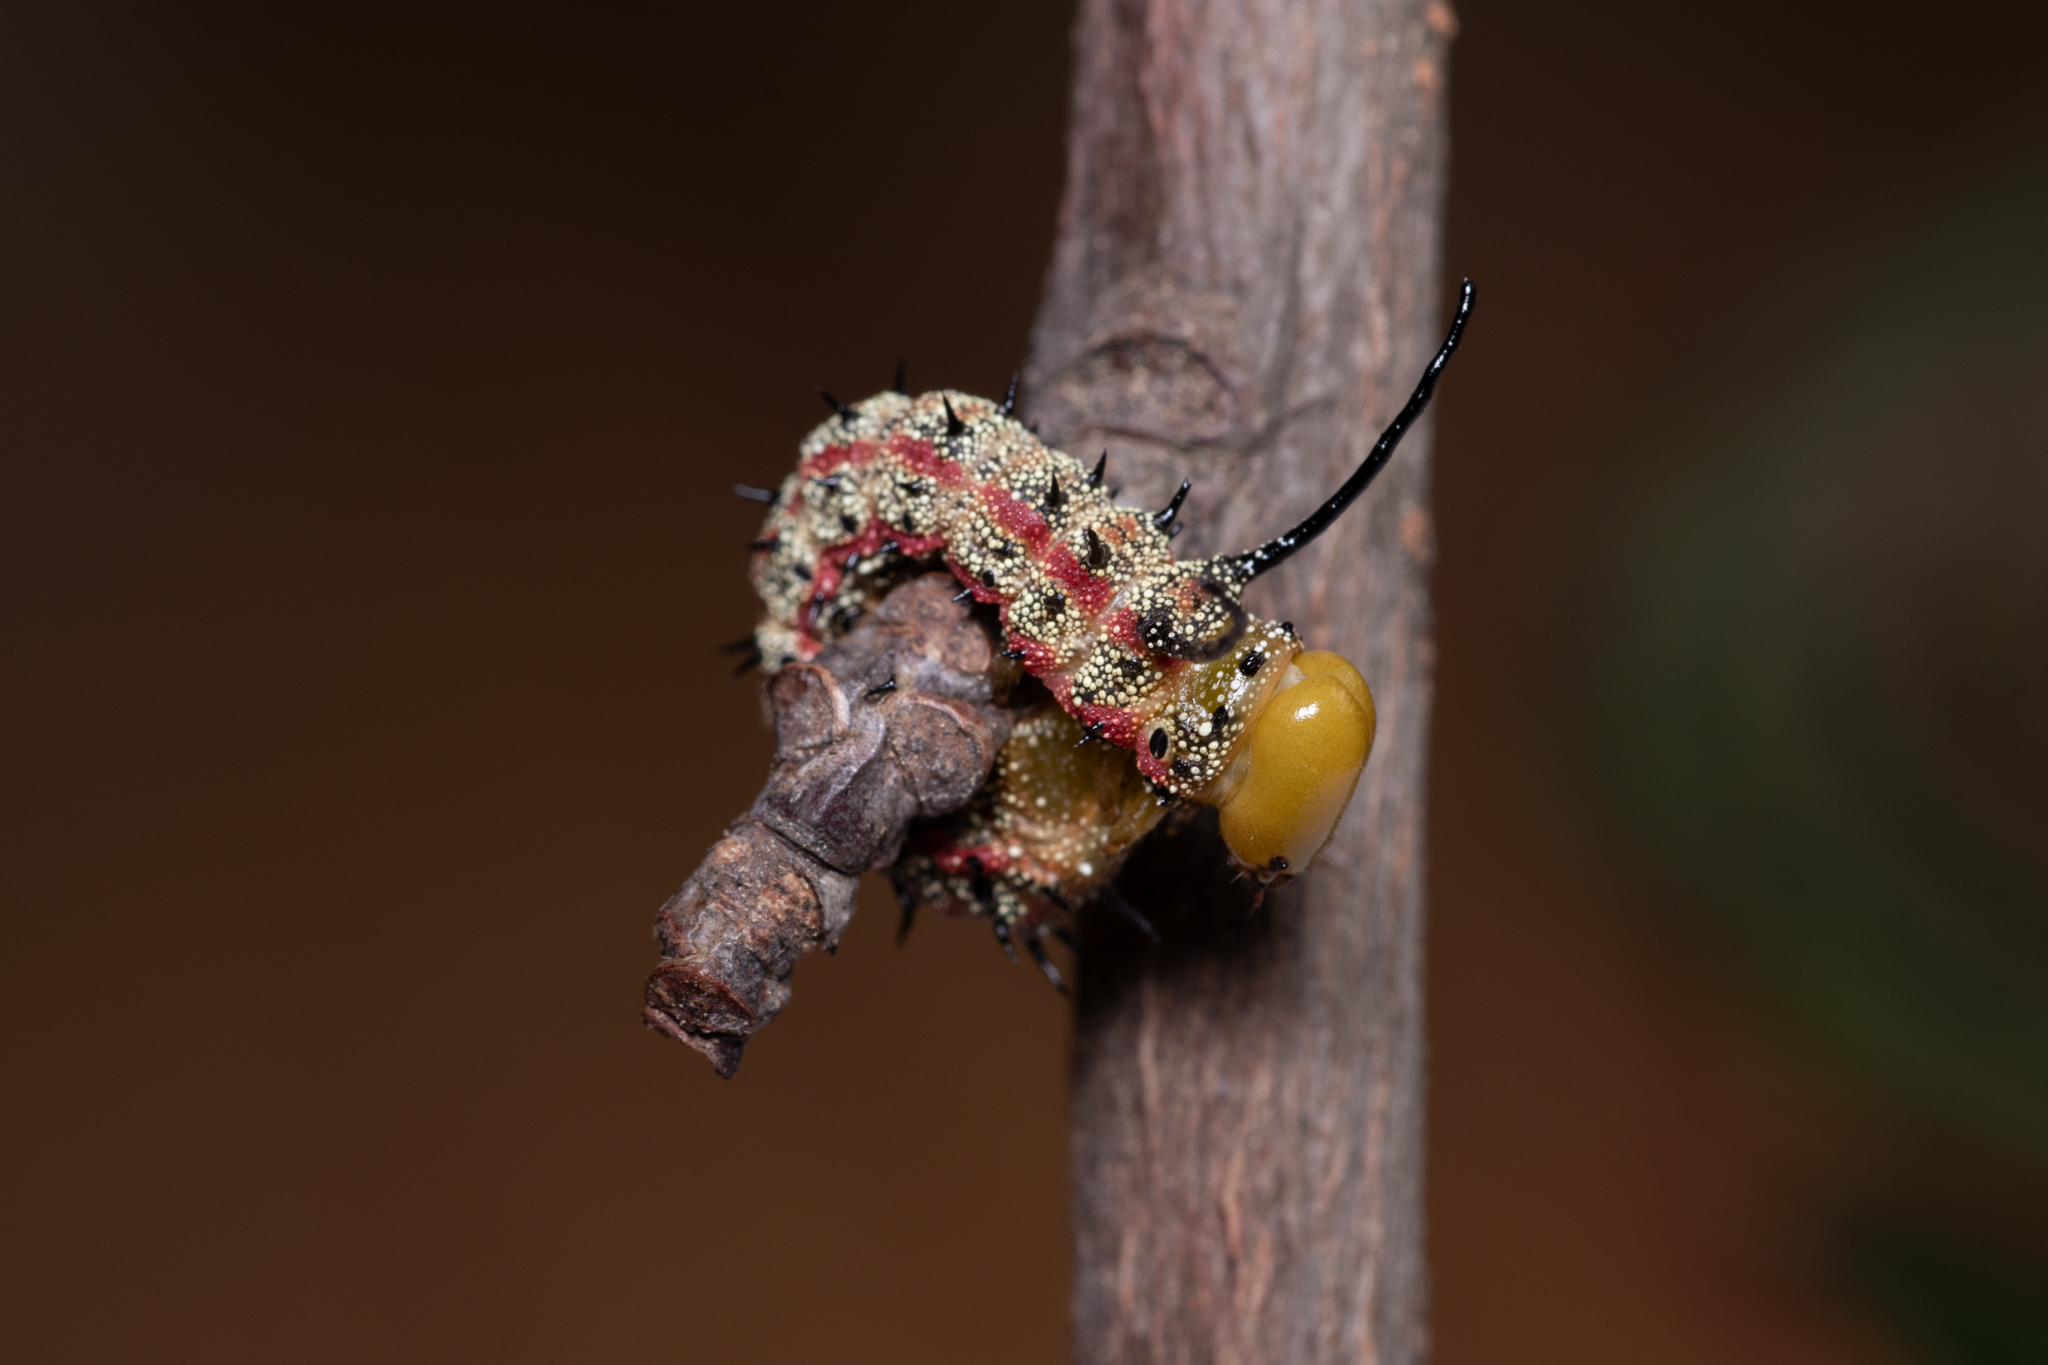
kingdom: Animalia
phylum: Arthropoda
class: Insecta
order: Lepidoptera
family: Saturniidae
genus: Anisota
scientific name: Anisota virginiensis
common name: Pink striped oakworm moth
